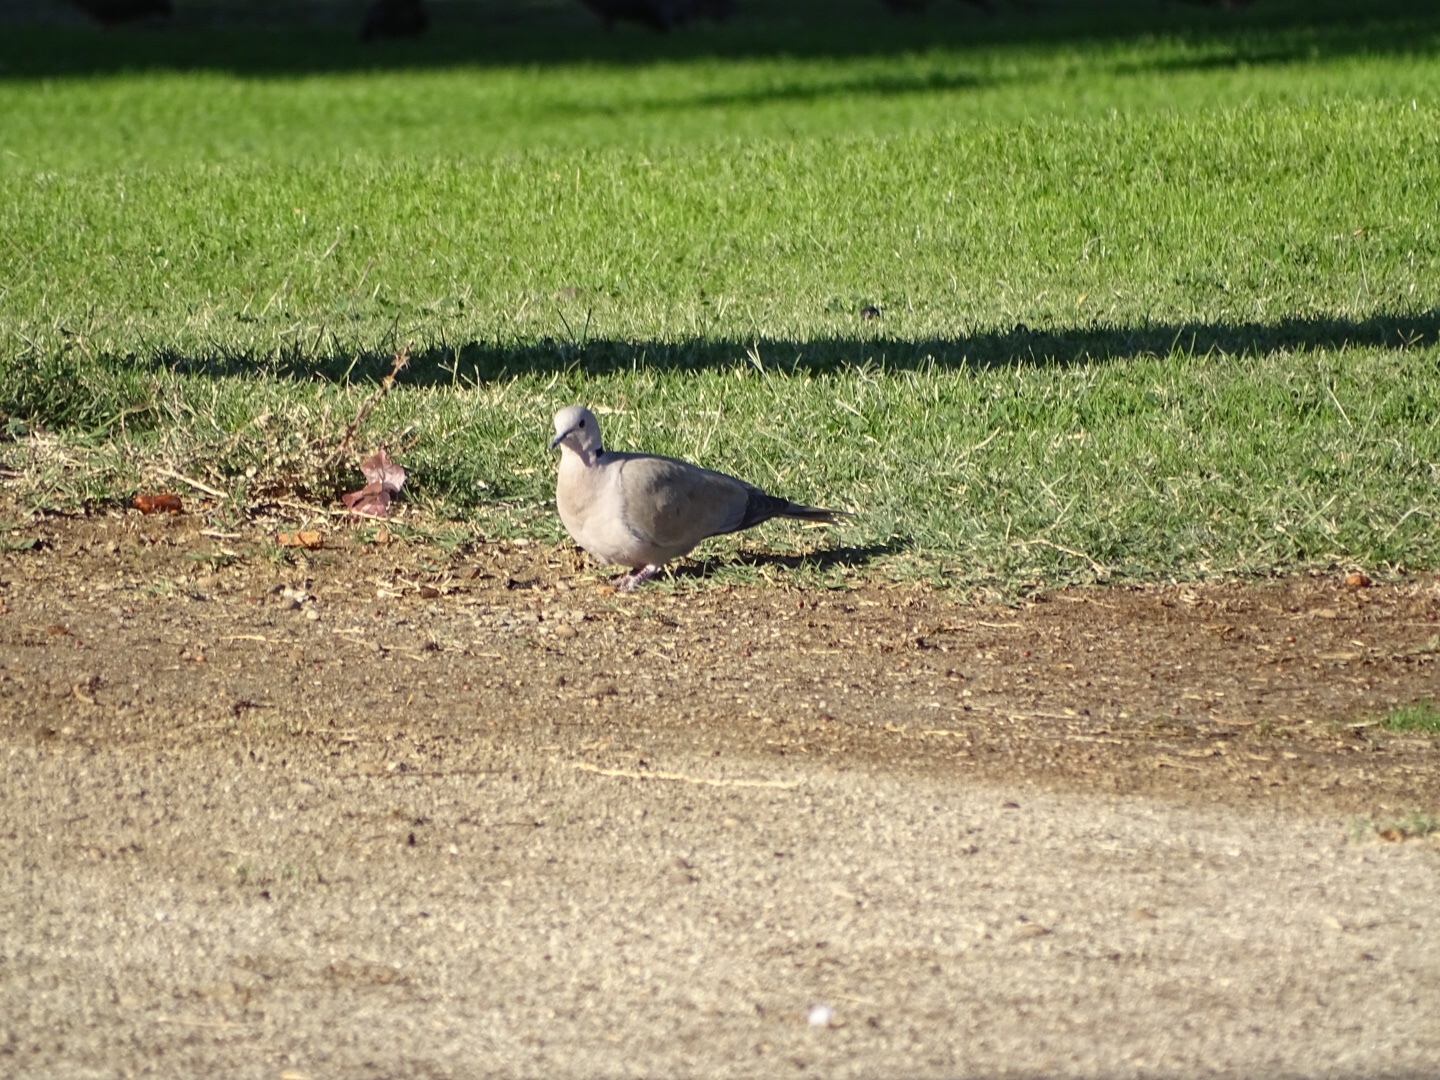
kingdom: Animalia
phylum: Chordata
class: Aves
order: Columbiformes
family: Columbidae
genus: Streptopelia
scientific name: Streptopelia decaocto
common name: Eurasian collared dove
